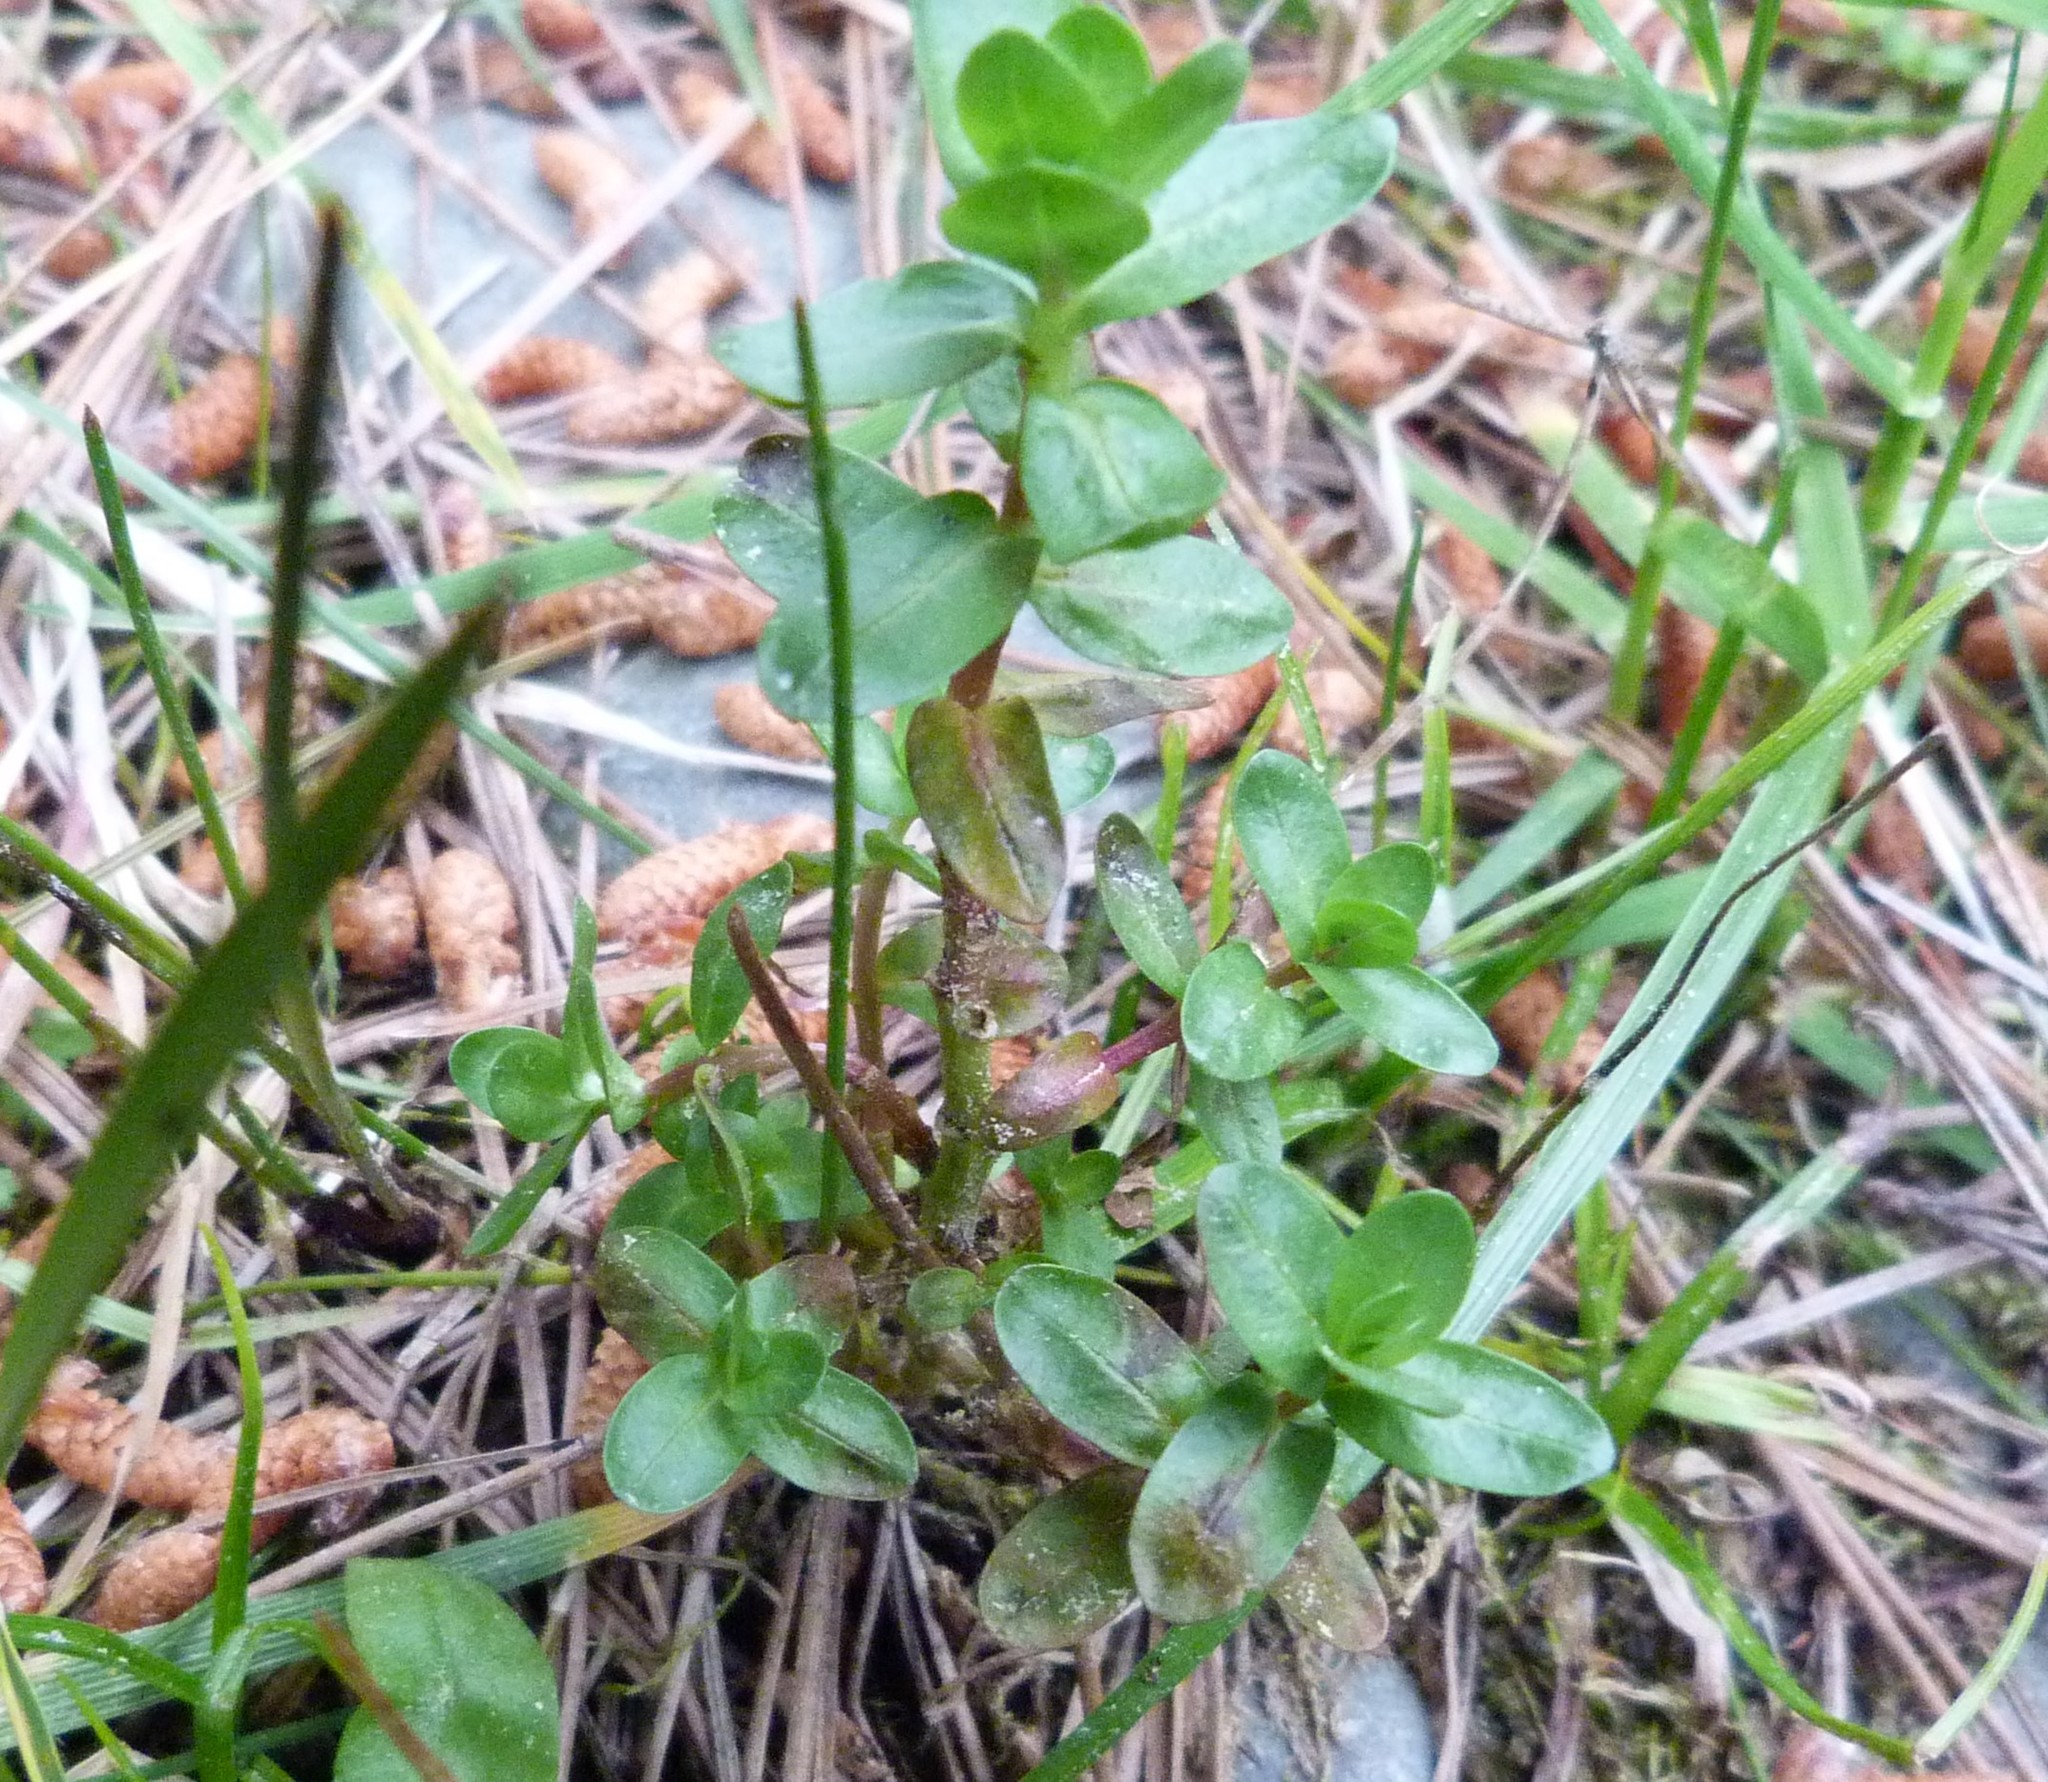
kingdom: Plantae
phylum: Tracheophyta
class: Magnoliopsida
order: Gentianales
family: Gentianaceae
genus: Centaurium
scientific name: Centaurium erythraea
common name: Common centaury
